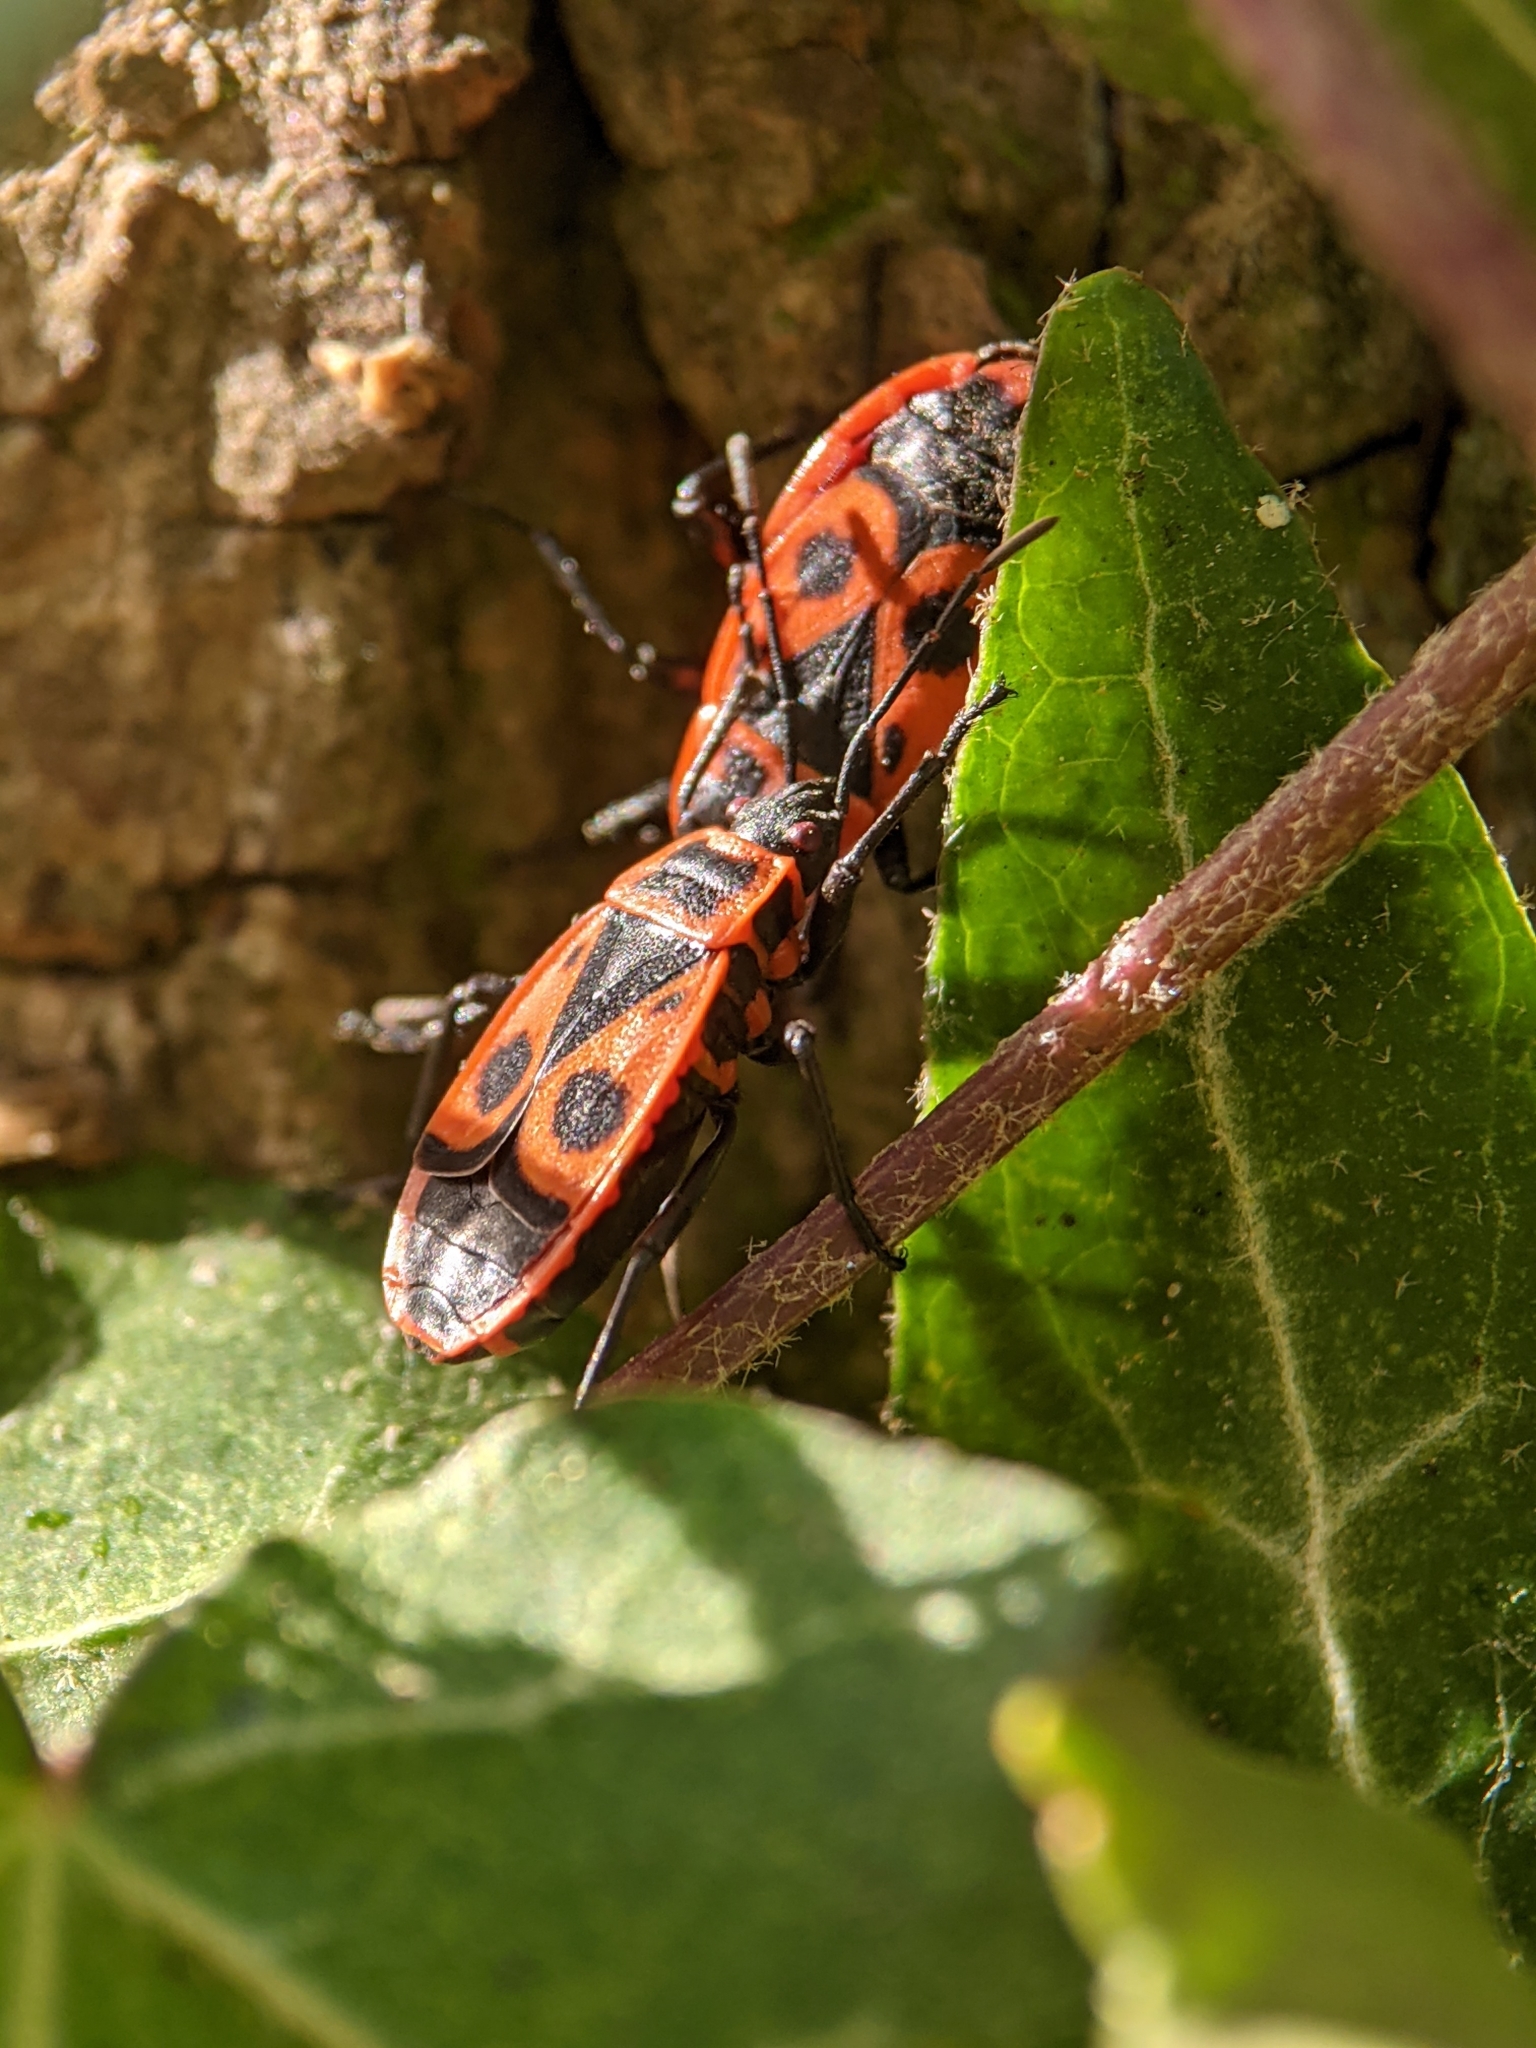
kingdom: Animalia
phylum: Arthropoda
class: Insecta
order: Hemiptera
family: Pyrrhocoridae
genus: Pyrrhocoris
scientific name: Pyrrhocoris apterus
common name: Firebug
